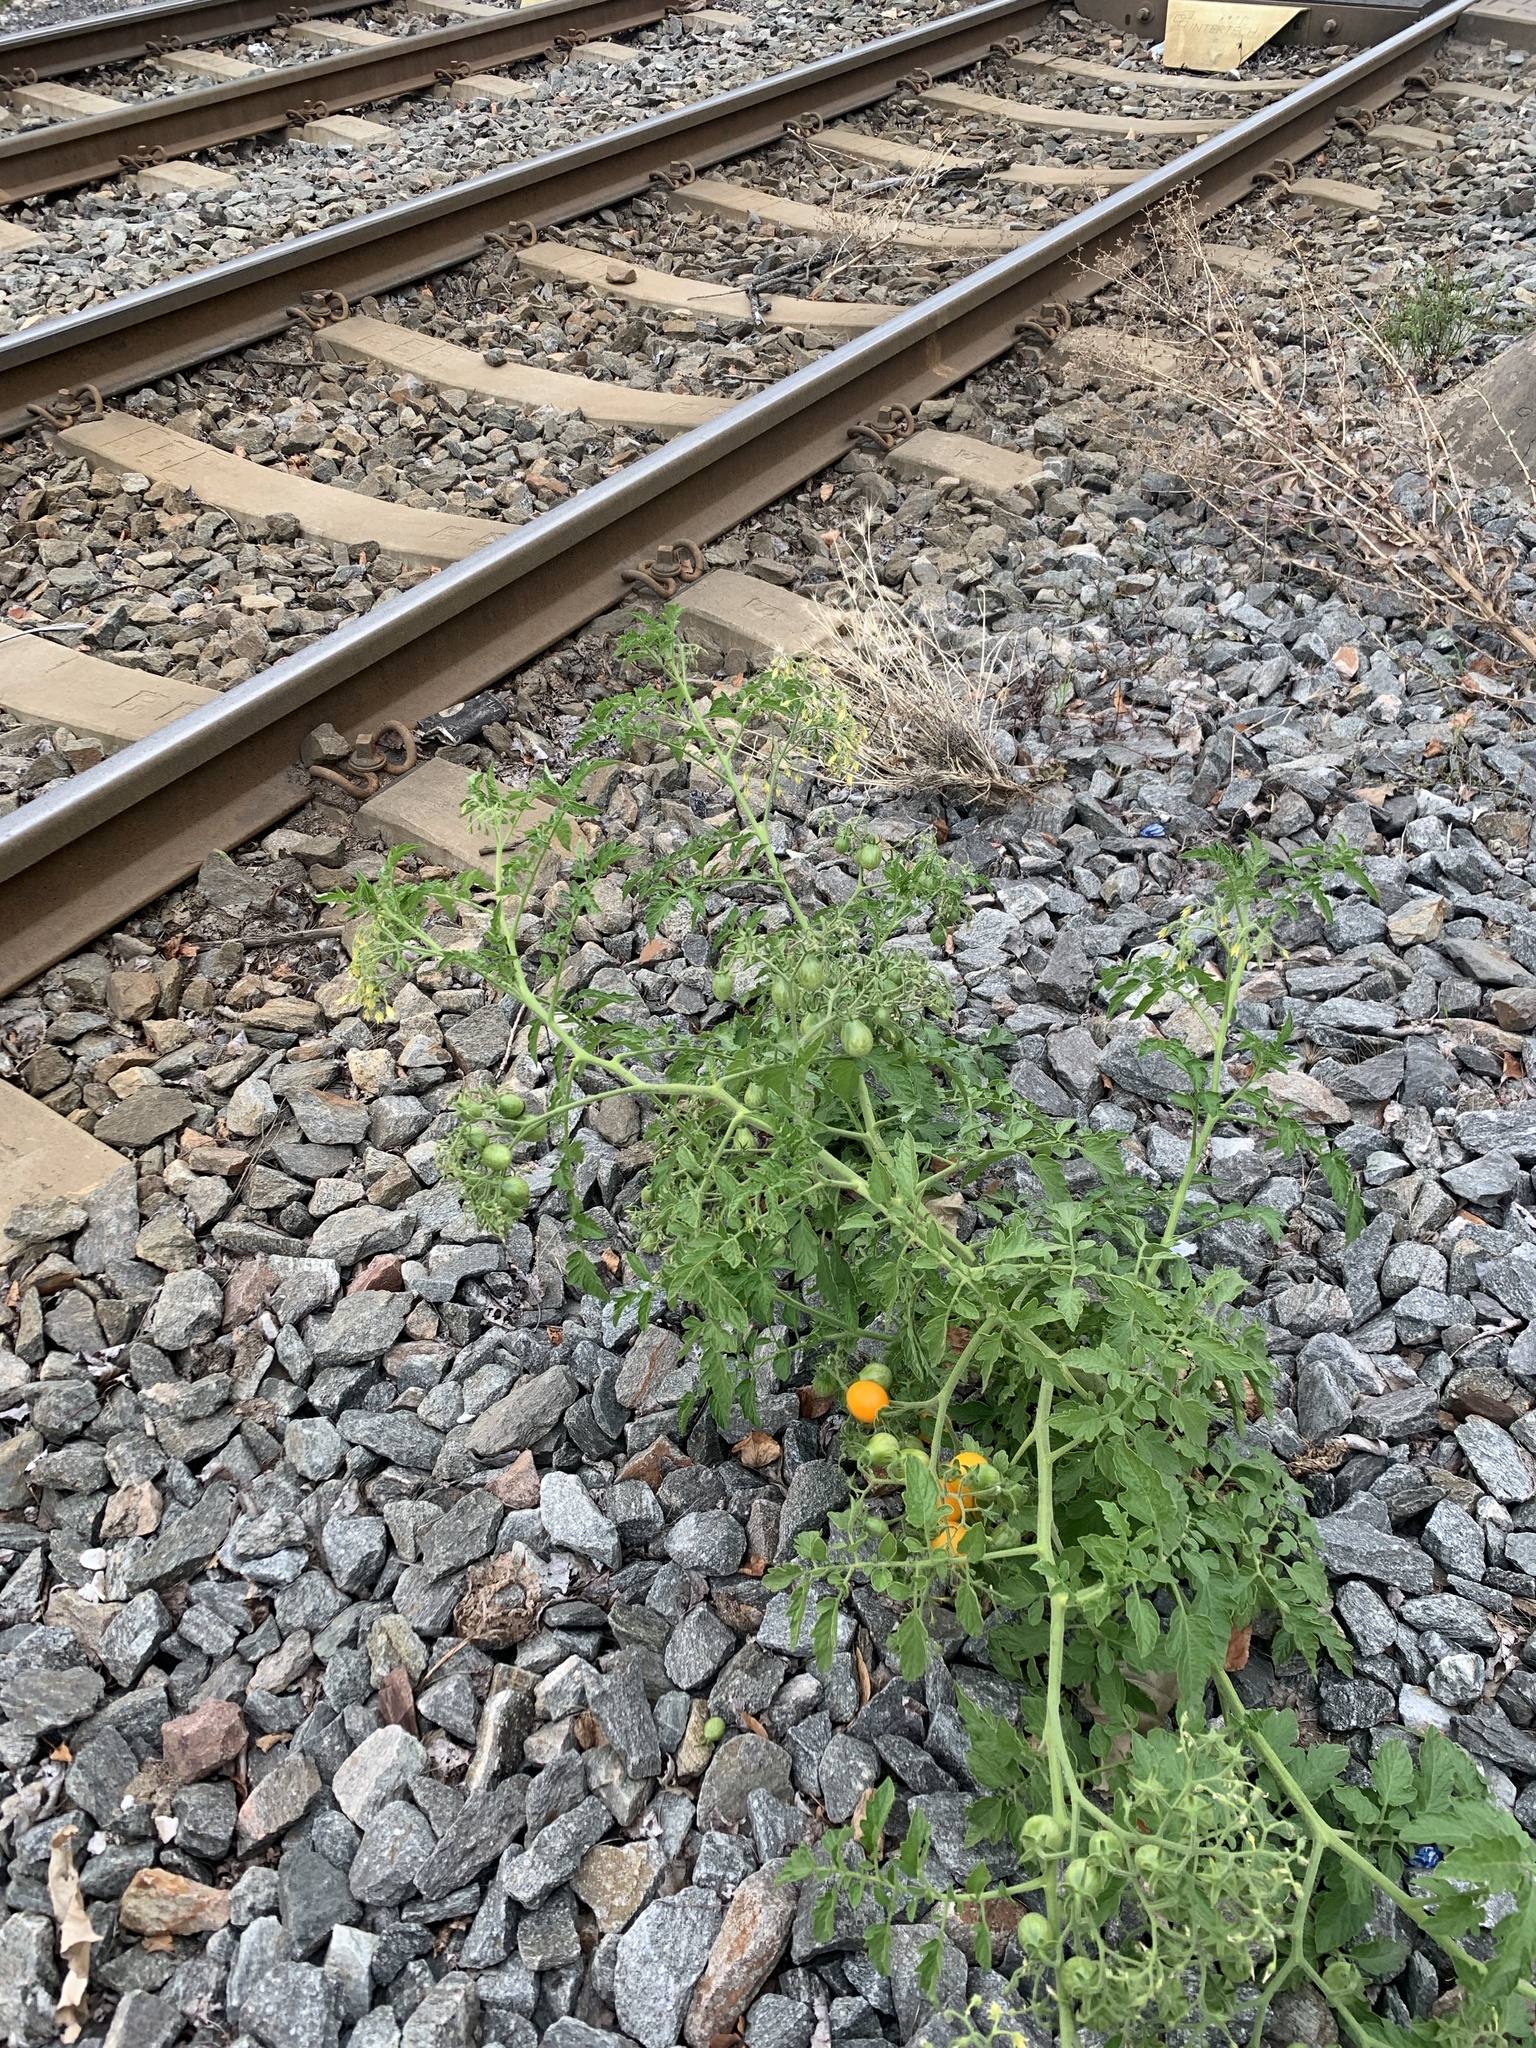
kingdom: Plantae
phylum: Tracheophyta
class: Magnoliopsida
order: Solanales
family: Solanaceae
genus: Solanum
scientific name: Solanum lycopersicum
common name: Garden tomato
